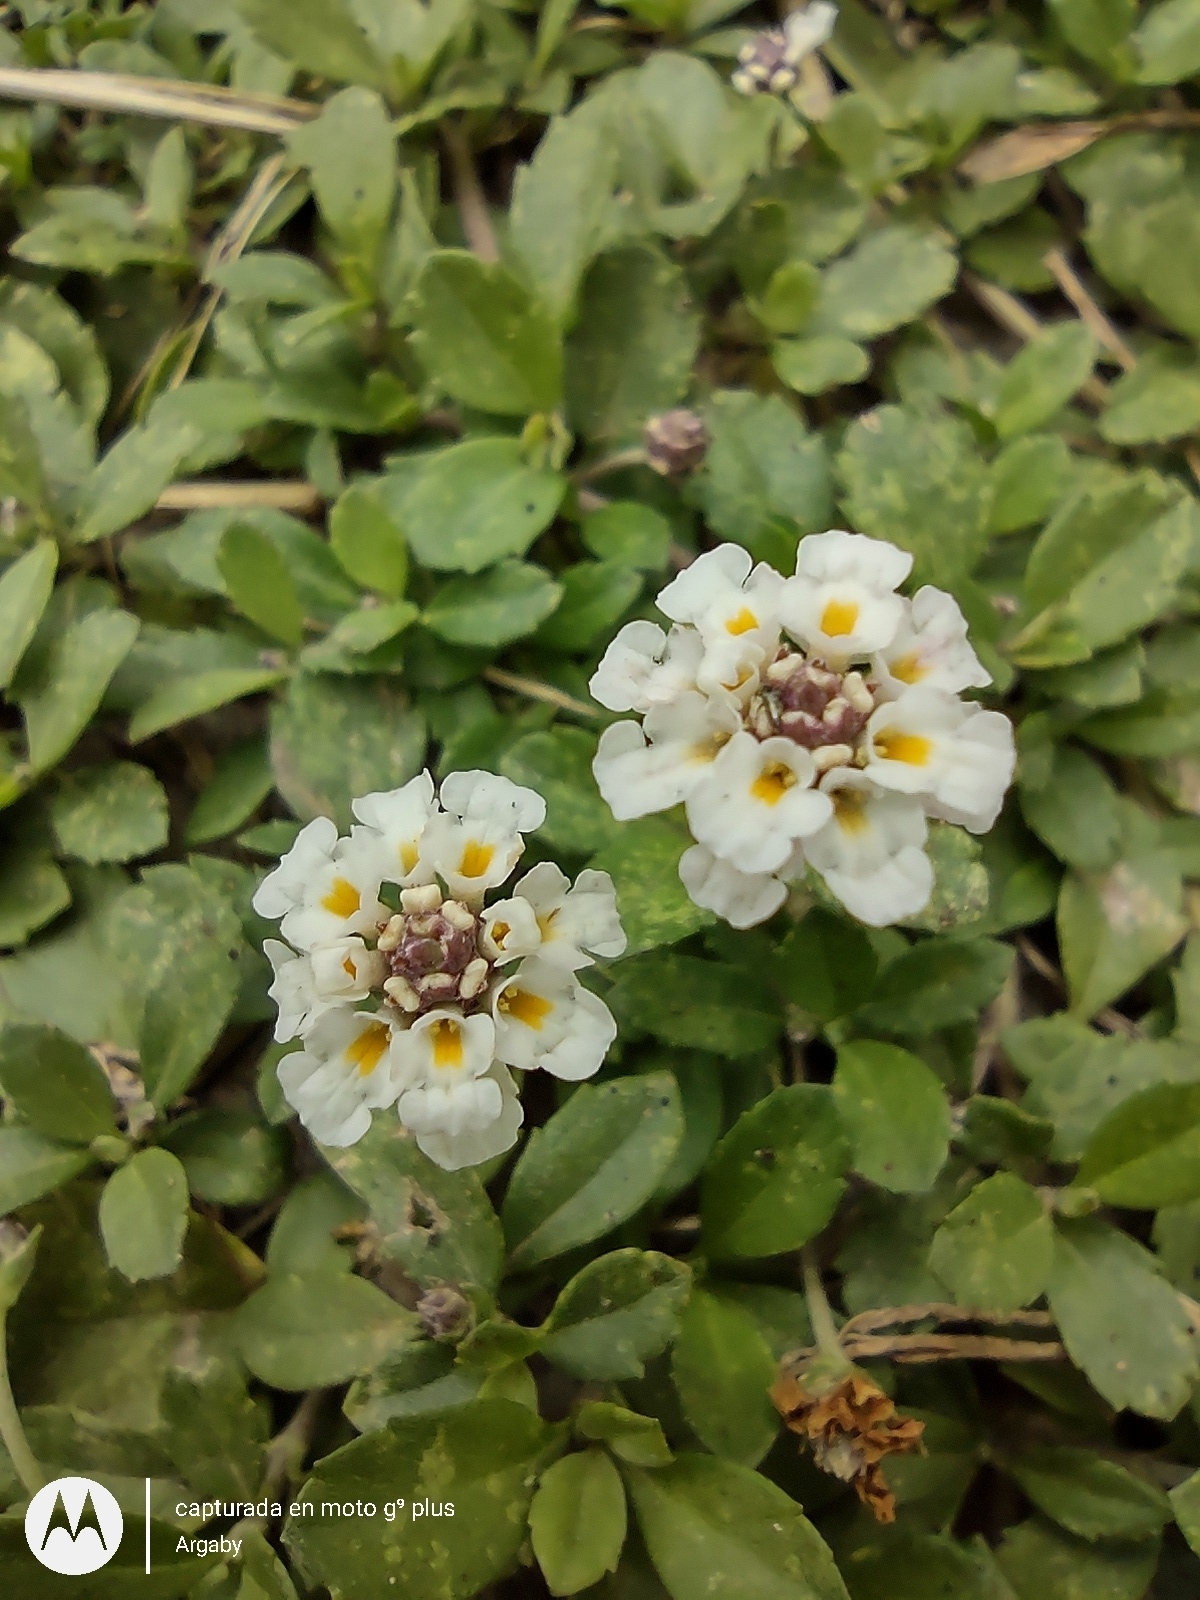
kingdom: Plantae
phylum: Tracheophyta
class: Magnoliopsida
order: Lamiales
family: Verbenaceae
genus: Phyla
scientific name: Phyla nodiflora
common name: Frogfruit
